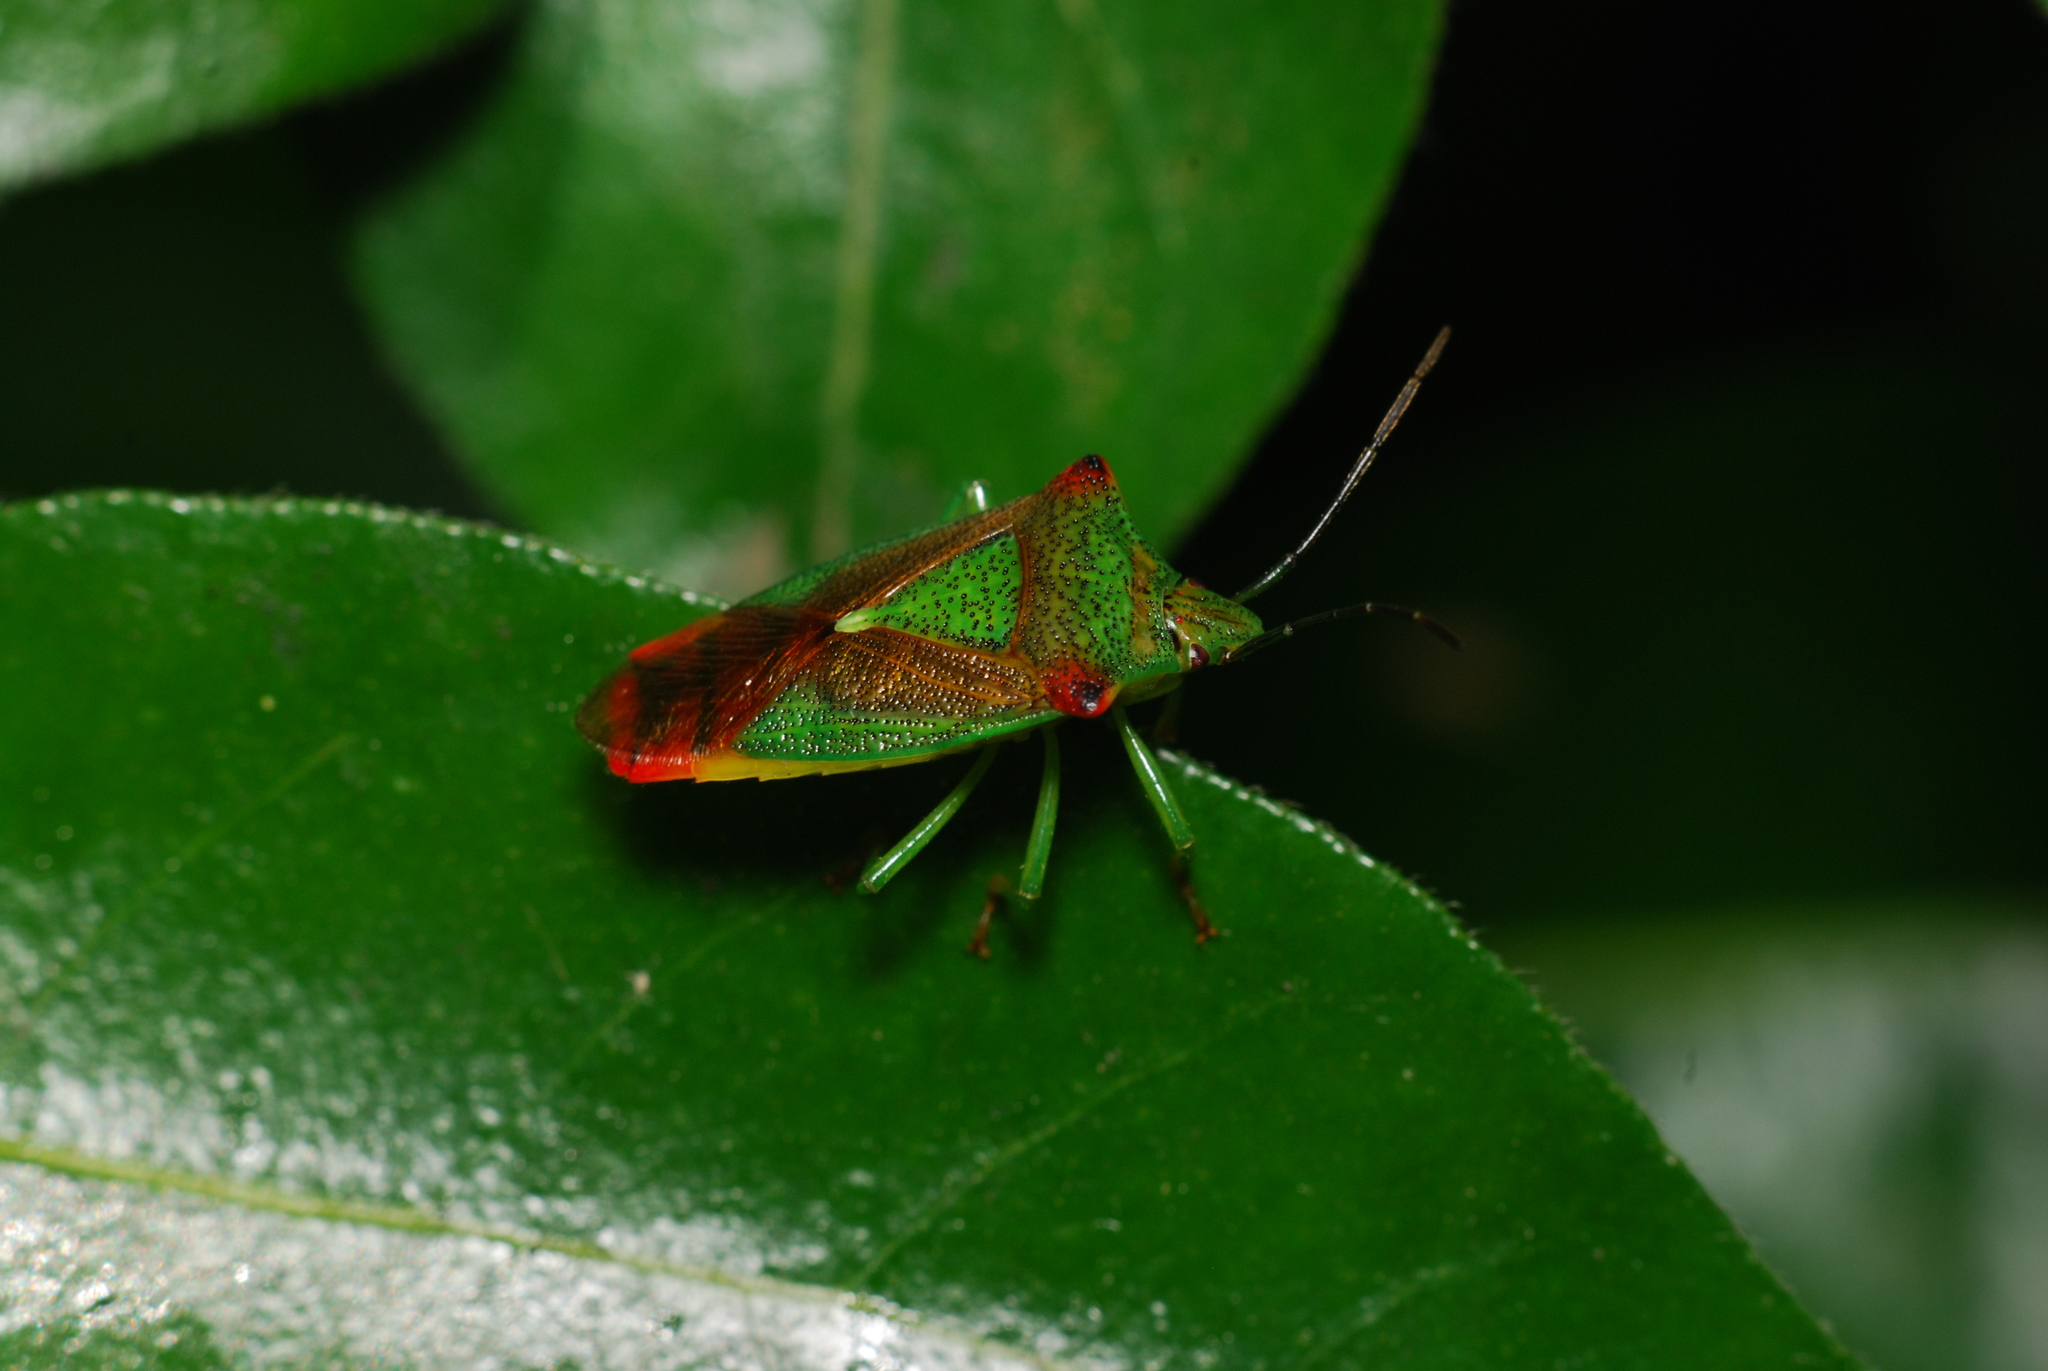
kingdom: Animalia
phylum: Arthropoda
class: Insecta
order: Hemiptera
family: Acanthosomatidae
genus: Acanthosoma
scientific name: Acanthosoma haemorrhoidale
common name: Hawthorn shieldbug
